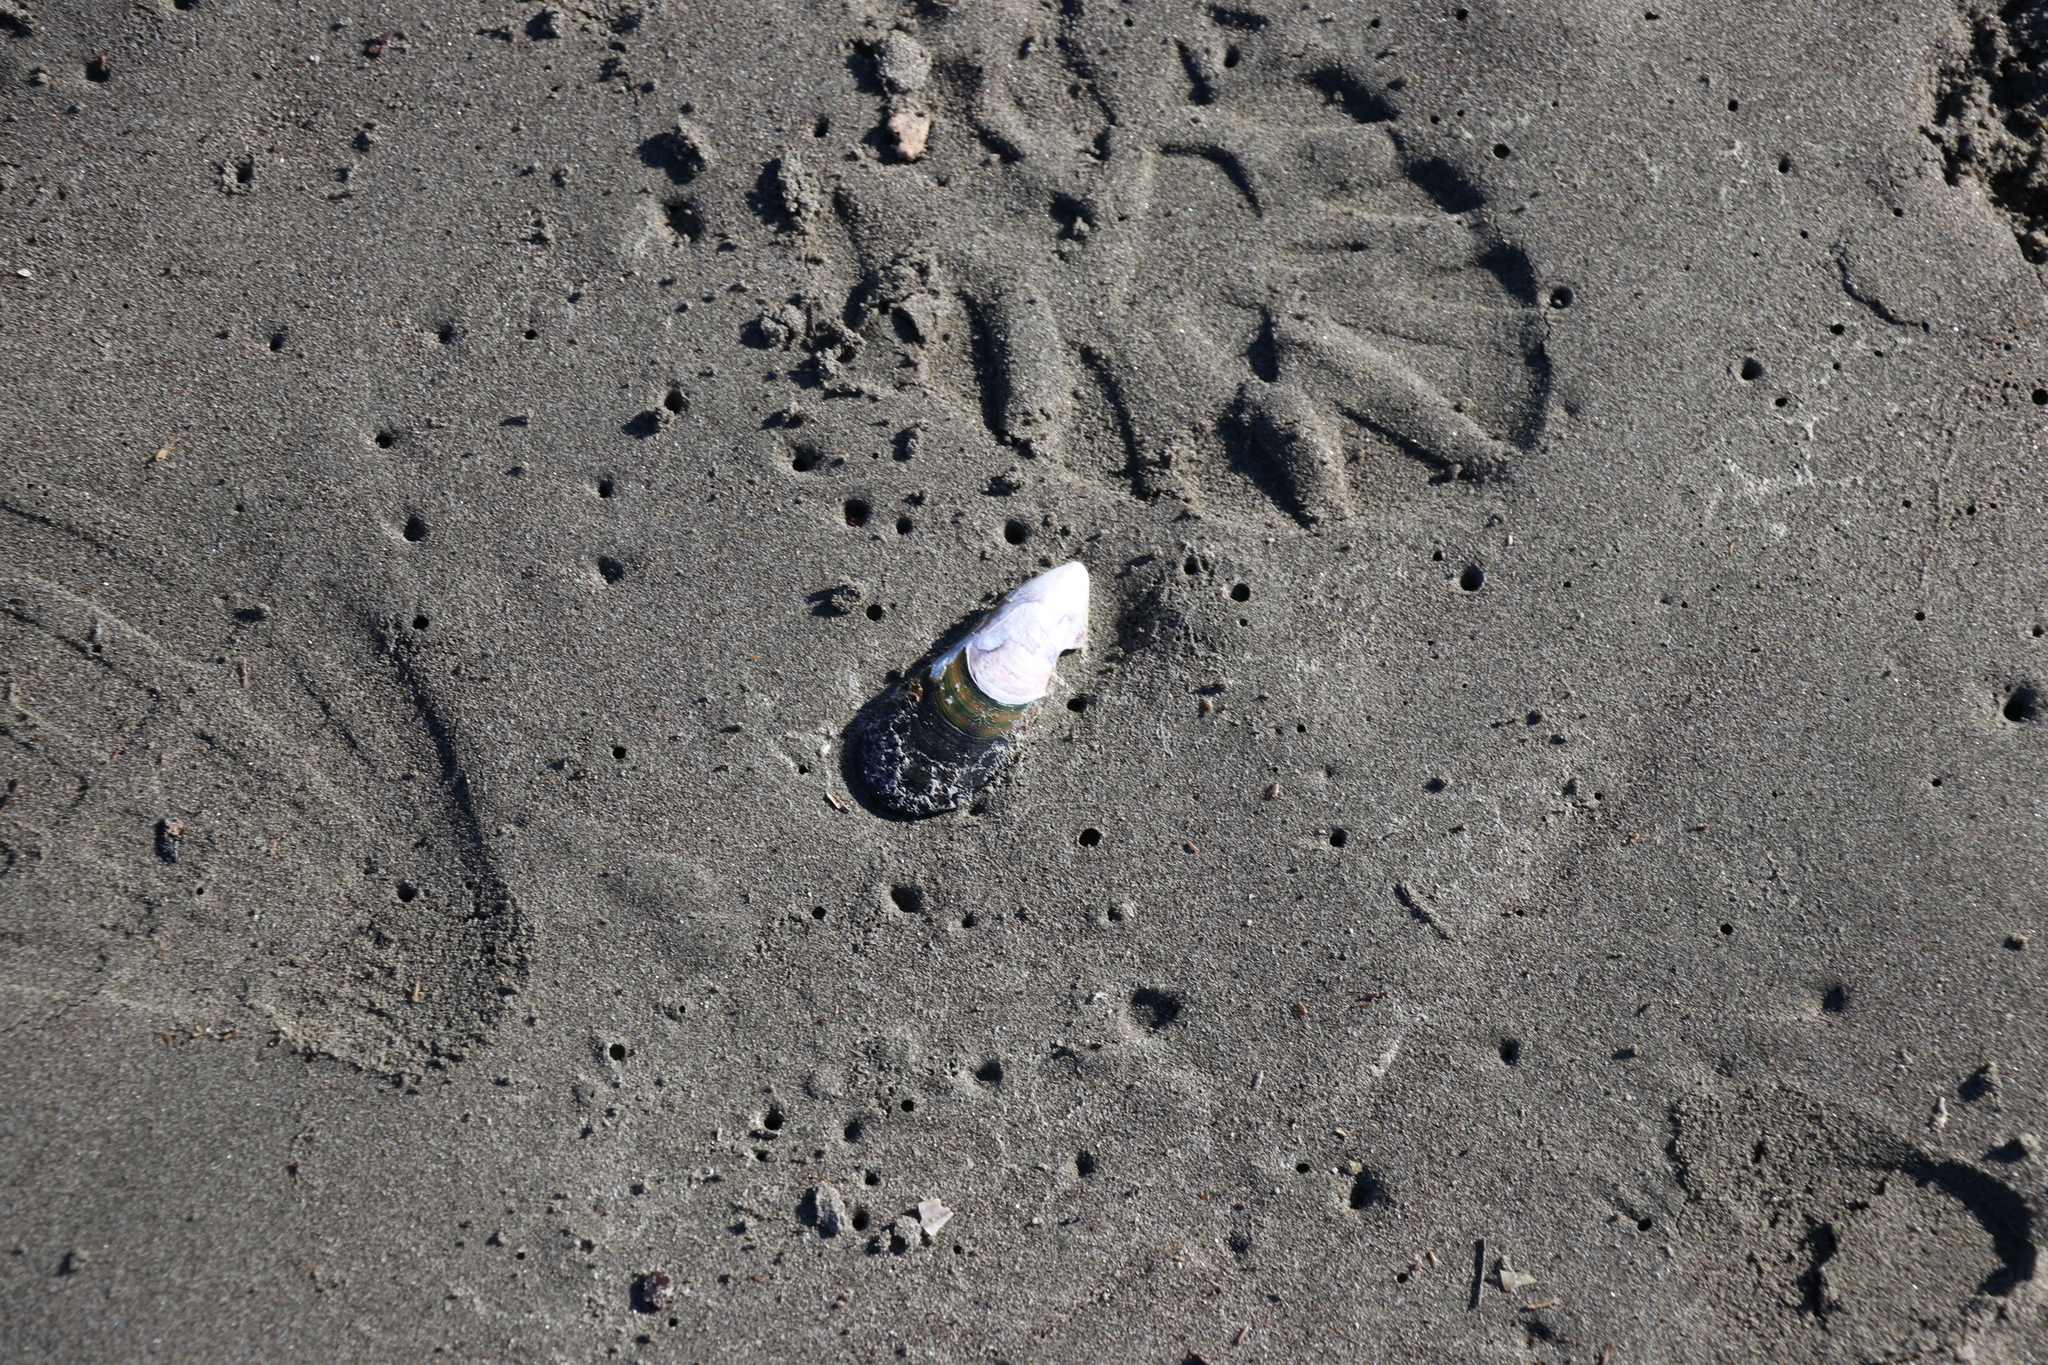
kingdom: Animalia
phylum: Mollusca
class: Bivalvia
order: Mytilida
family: Mytilidae
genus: Perna
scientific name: Perna canaliculus
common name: New zealand greenshelltm
